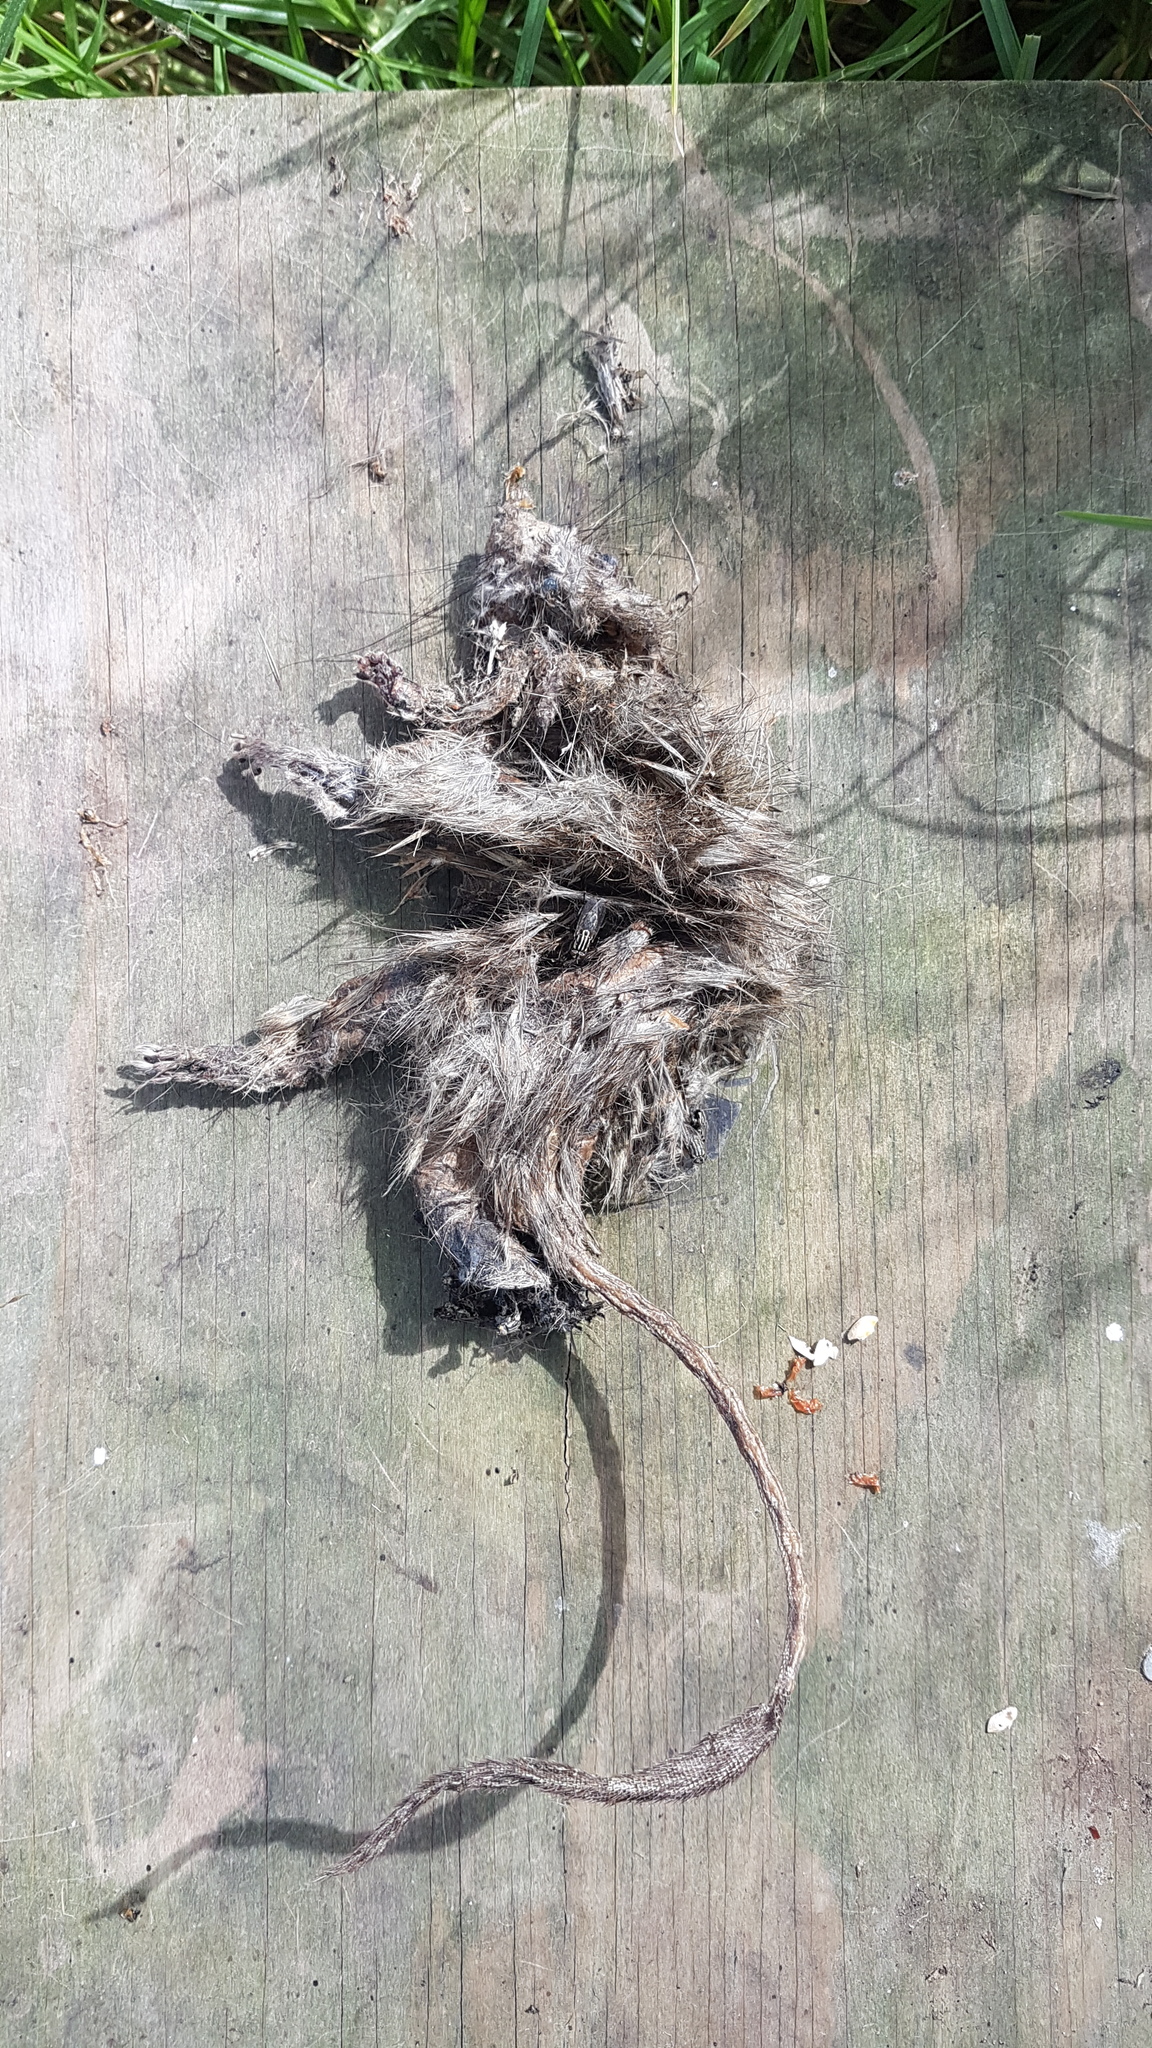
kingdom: Animalia
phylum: Chordata
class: Mammalia
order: Rodentia
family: Muridae
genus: Rattus
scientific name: Rattus rattus
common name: Black rat
